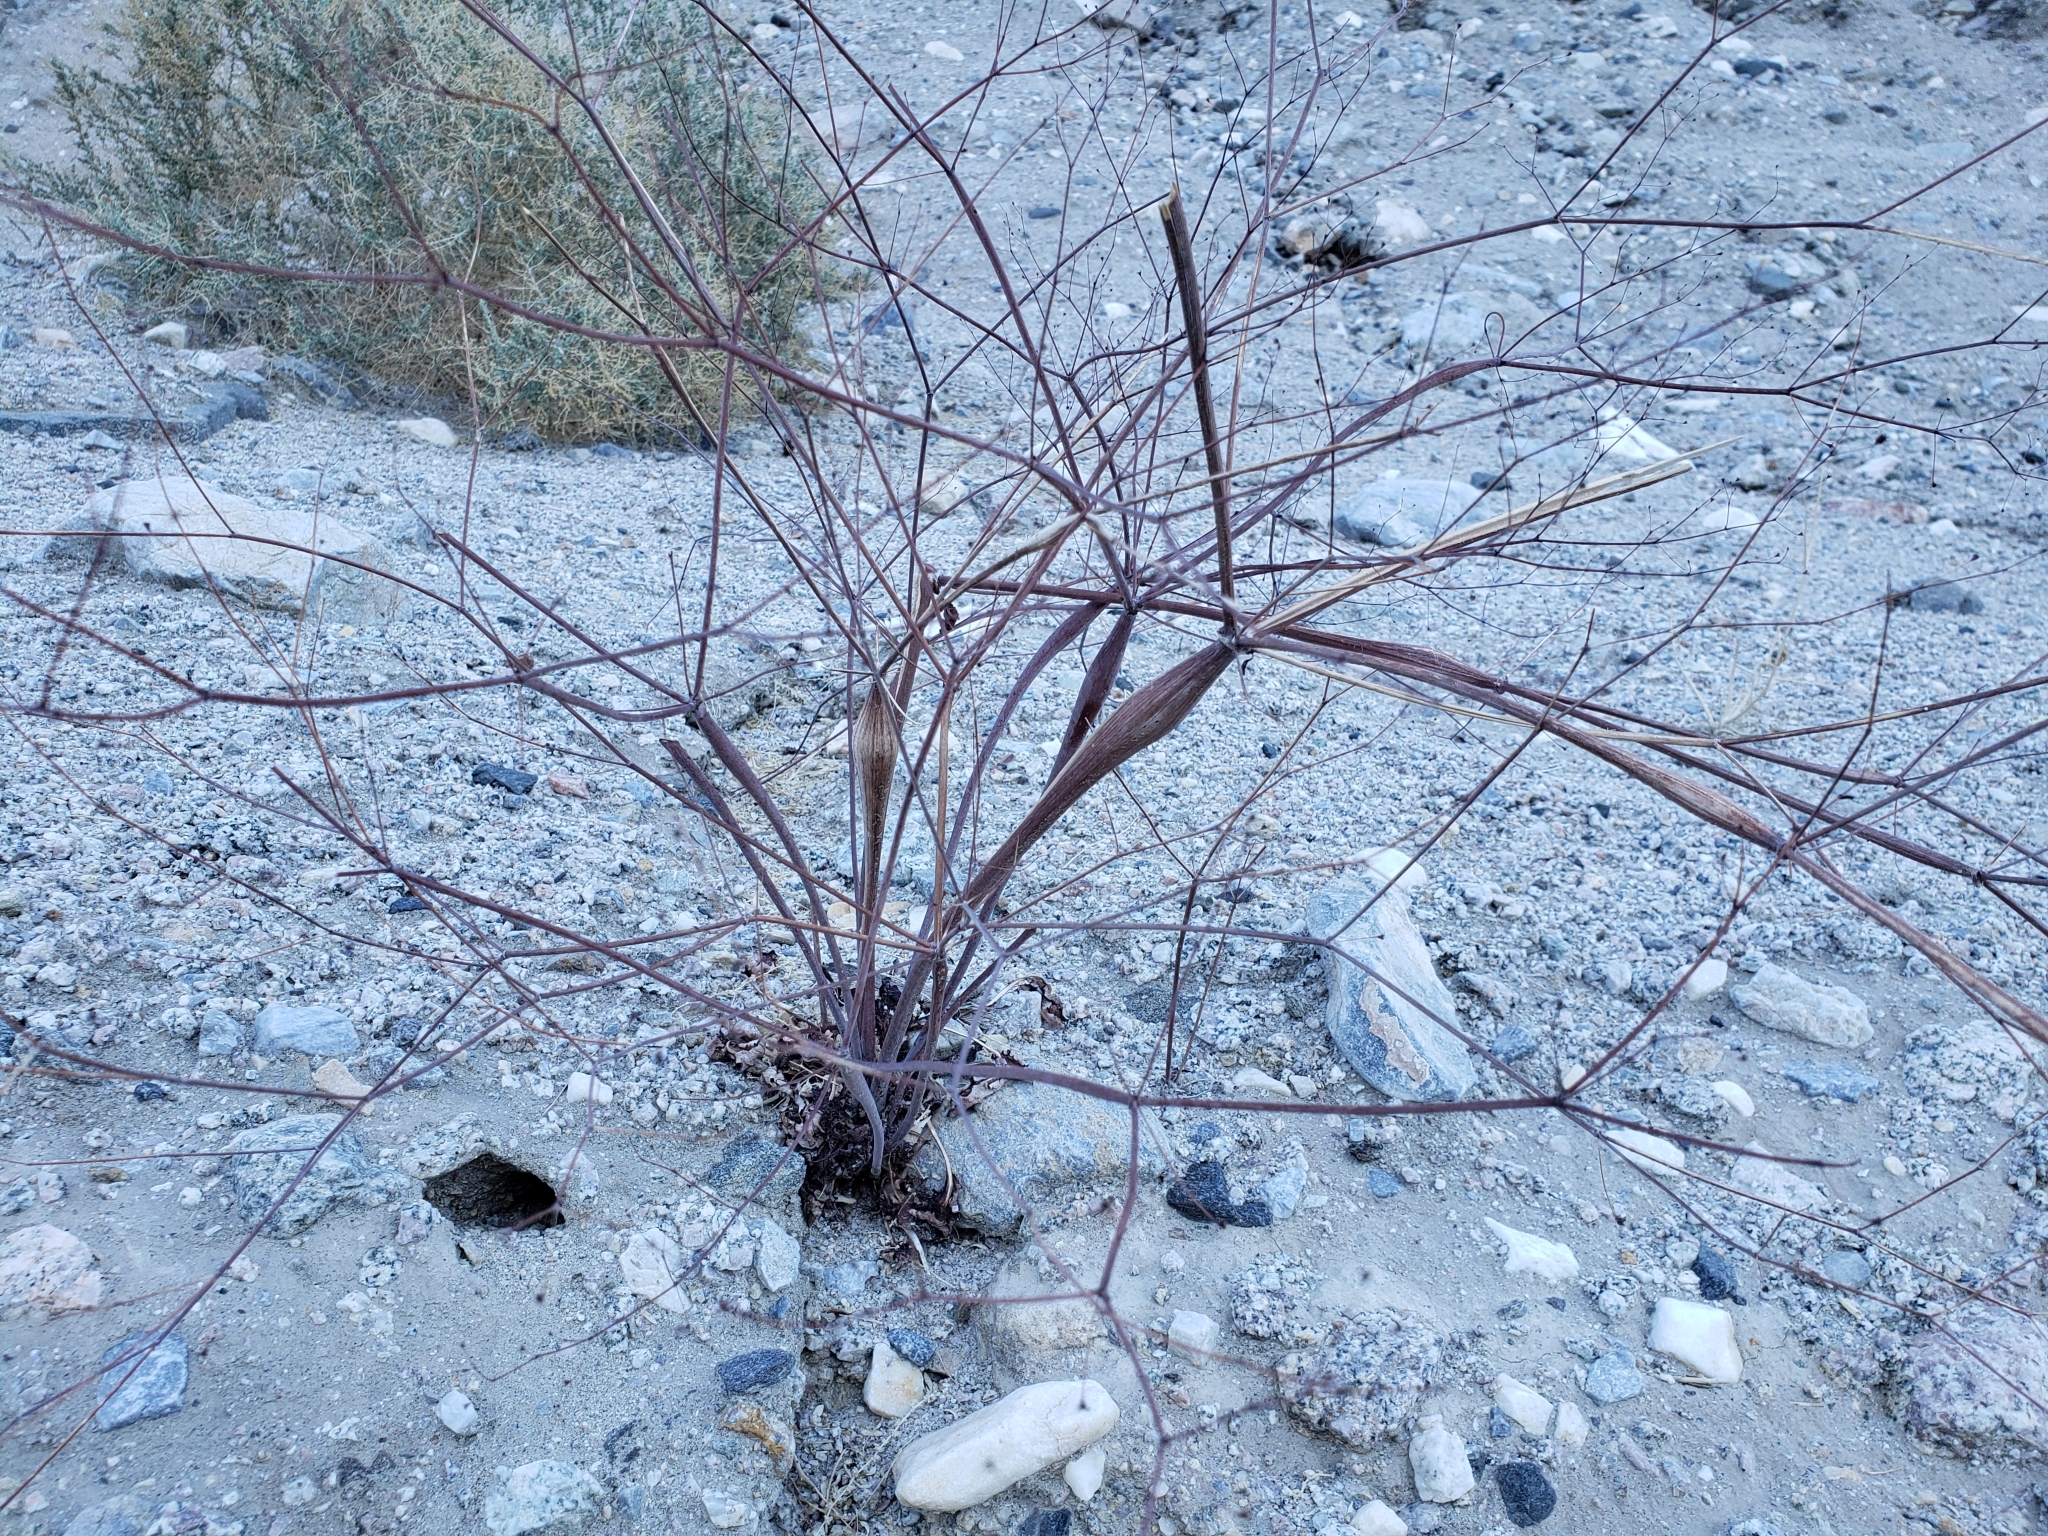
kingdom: Plantae
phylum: Tracheophyta
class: Magnoliopsida
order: Caryophyllales
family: Polygonaceae
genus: Eriogonum
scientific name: Eriogonum inflatum
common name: Desert trumpet
